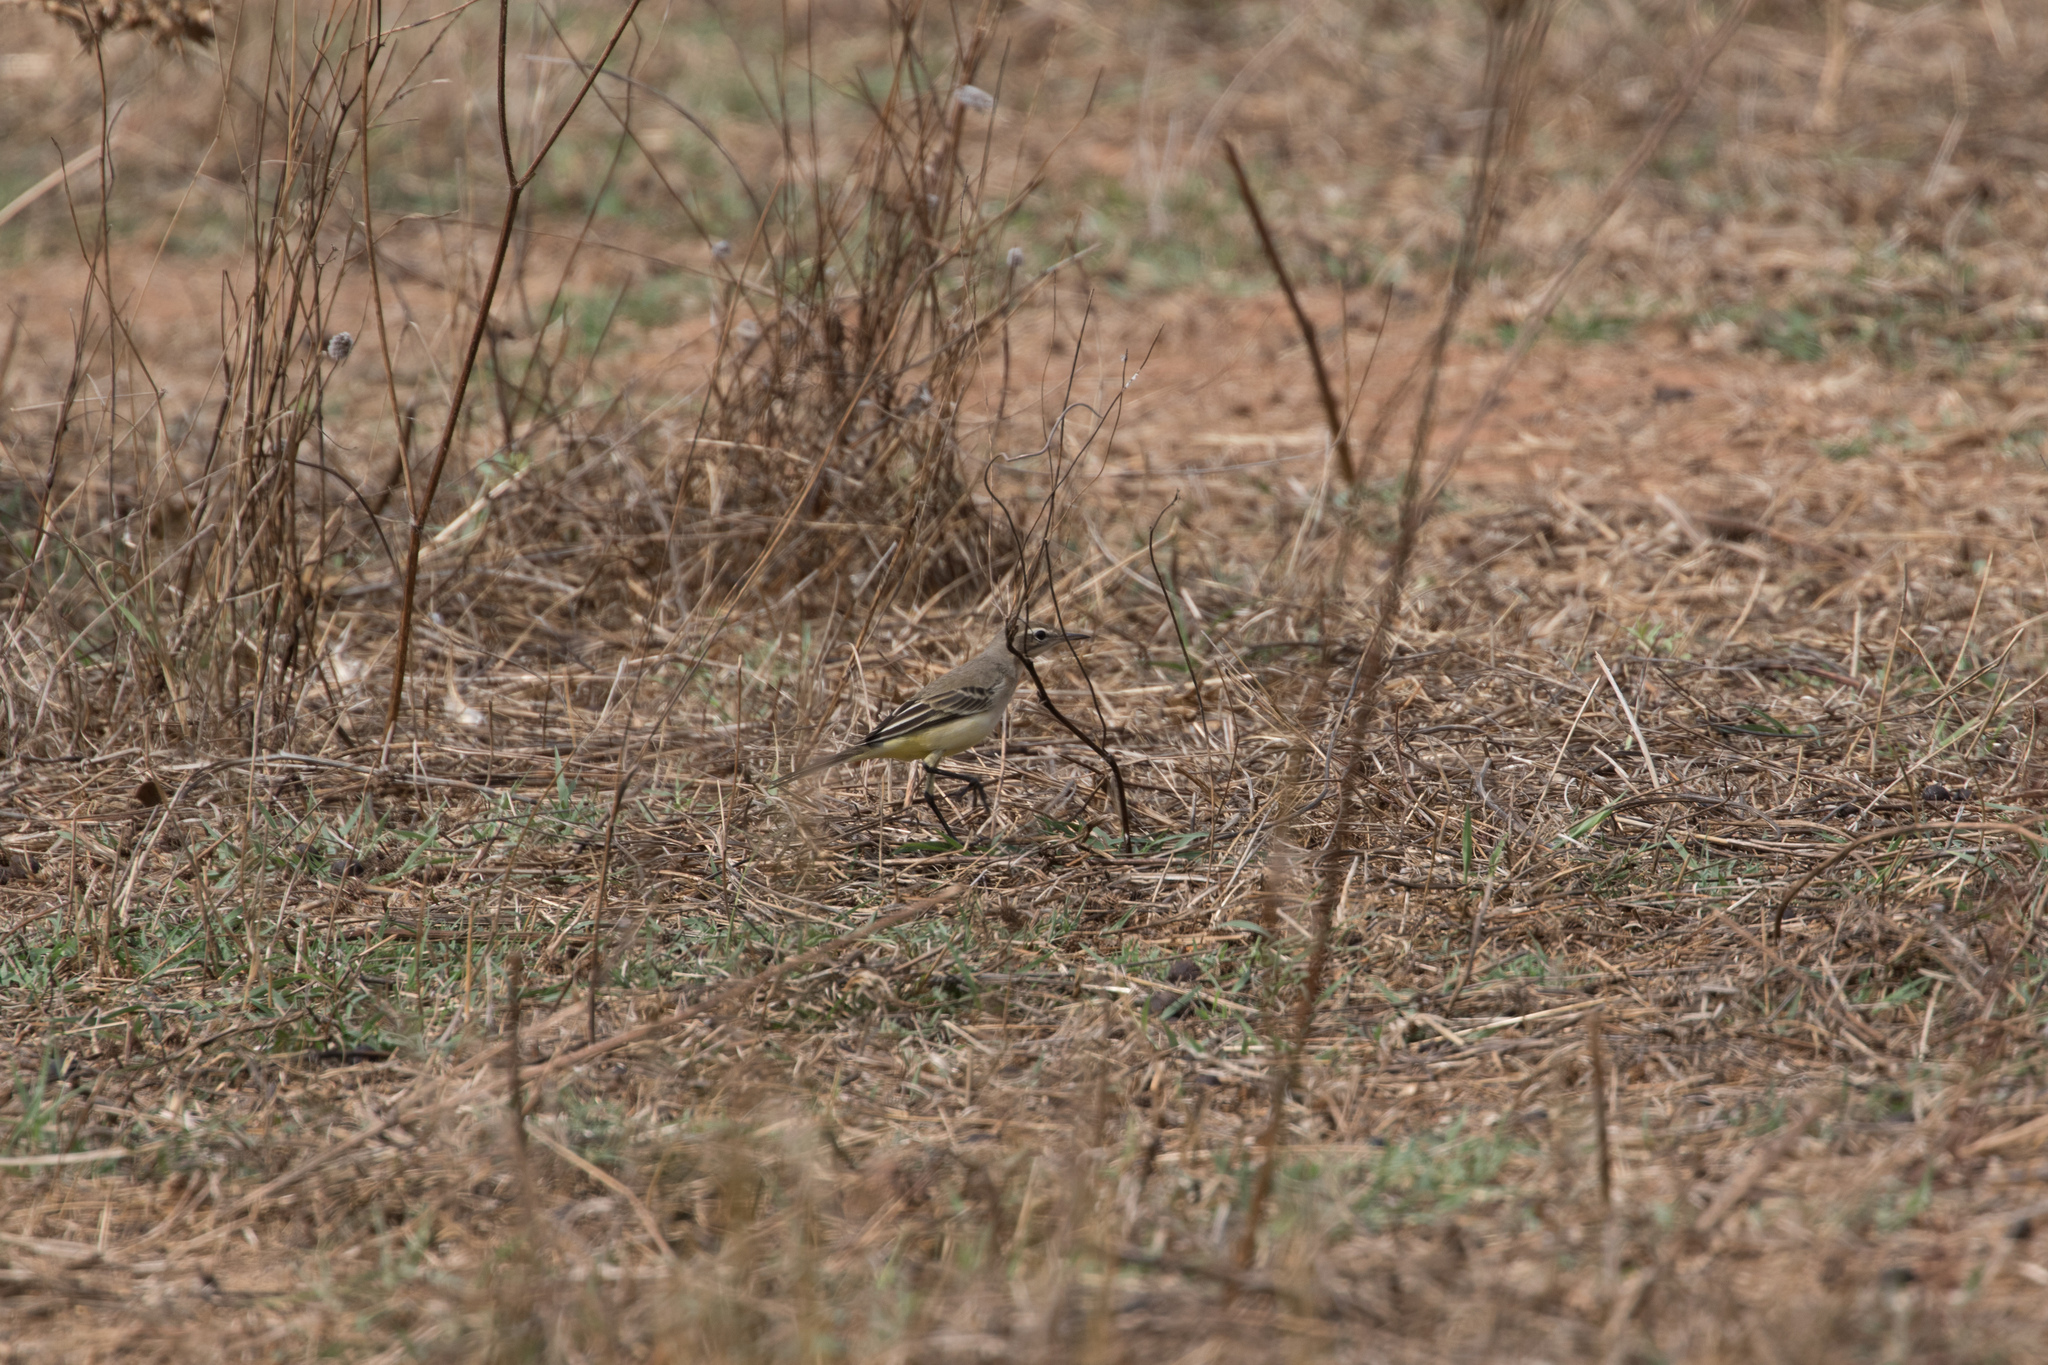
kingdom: Animalia
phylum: Chordata
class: Aves
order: Passeriformes
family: Motacillidae
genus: Motacilla
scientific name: Motacilla flava
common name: Western yellow wagtail
